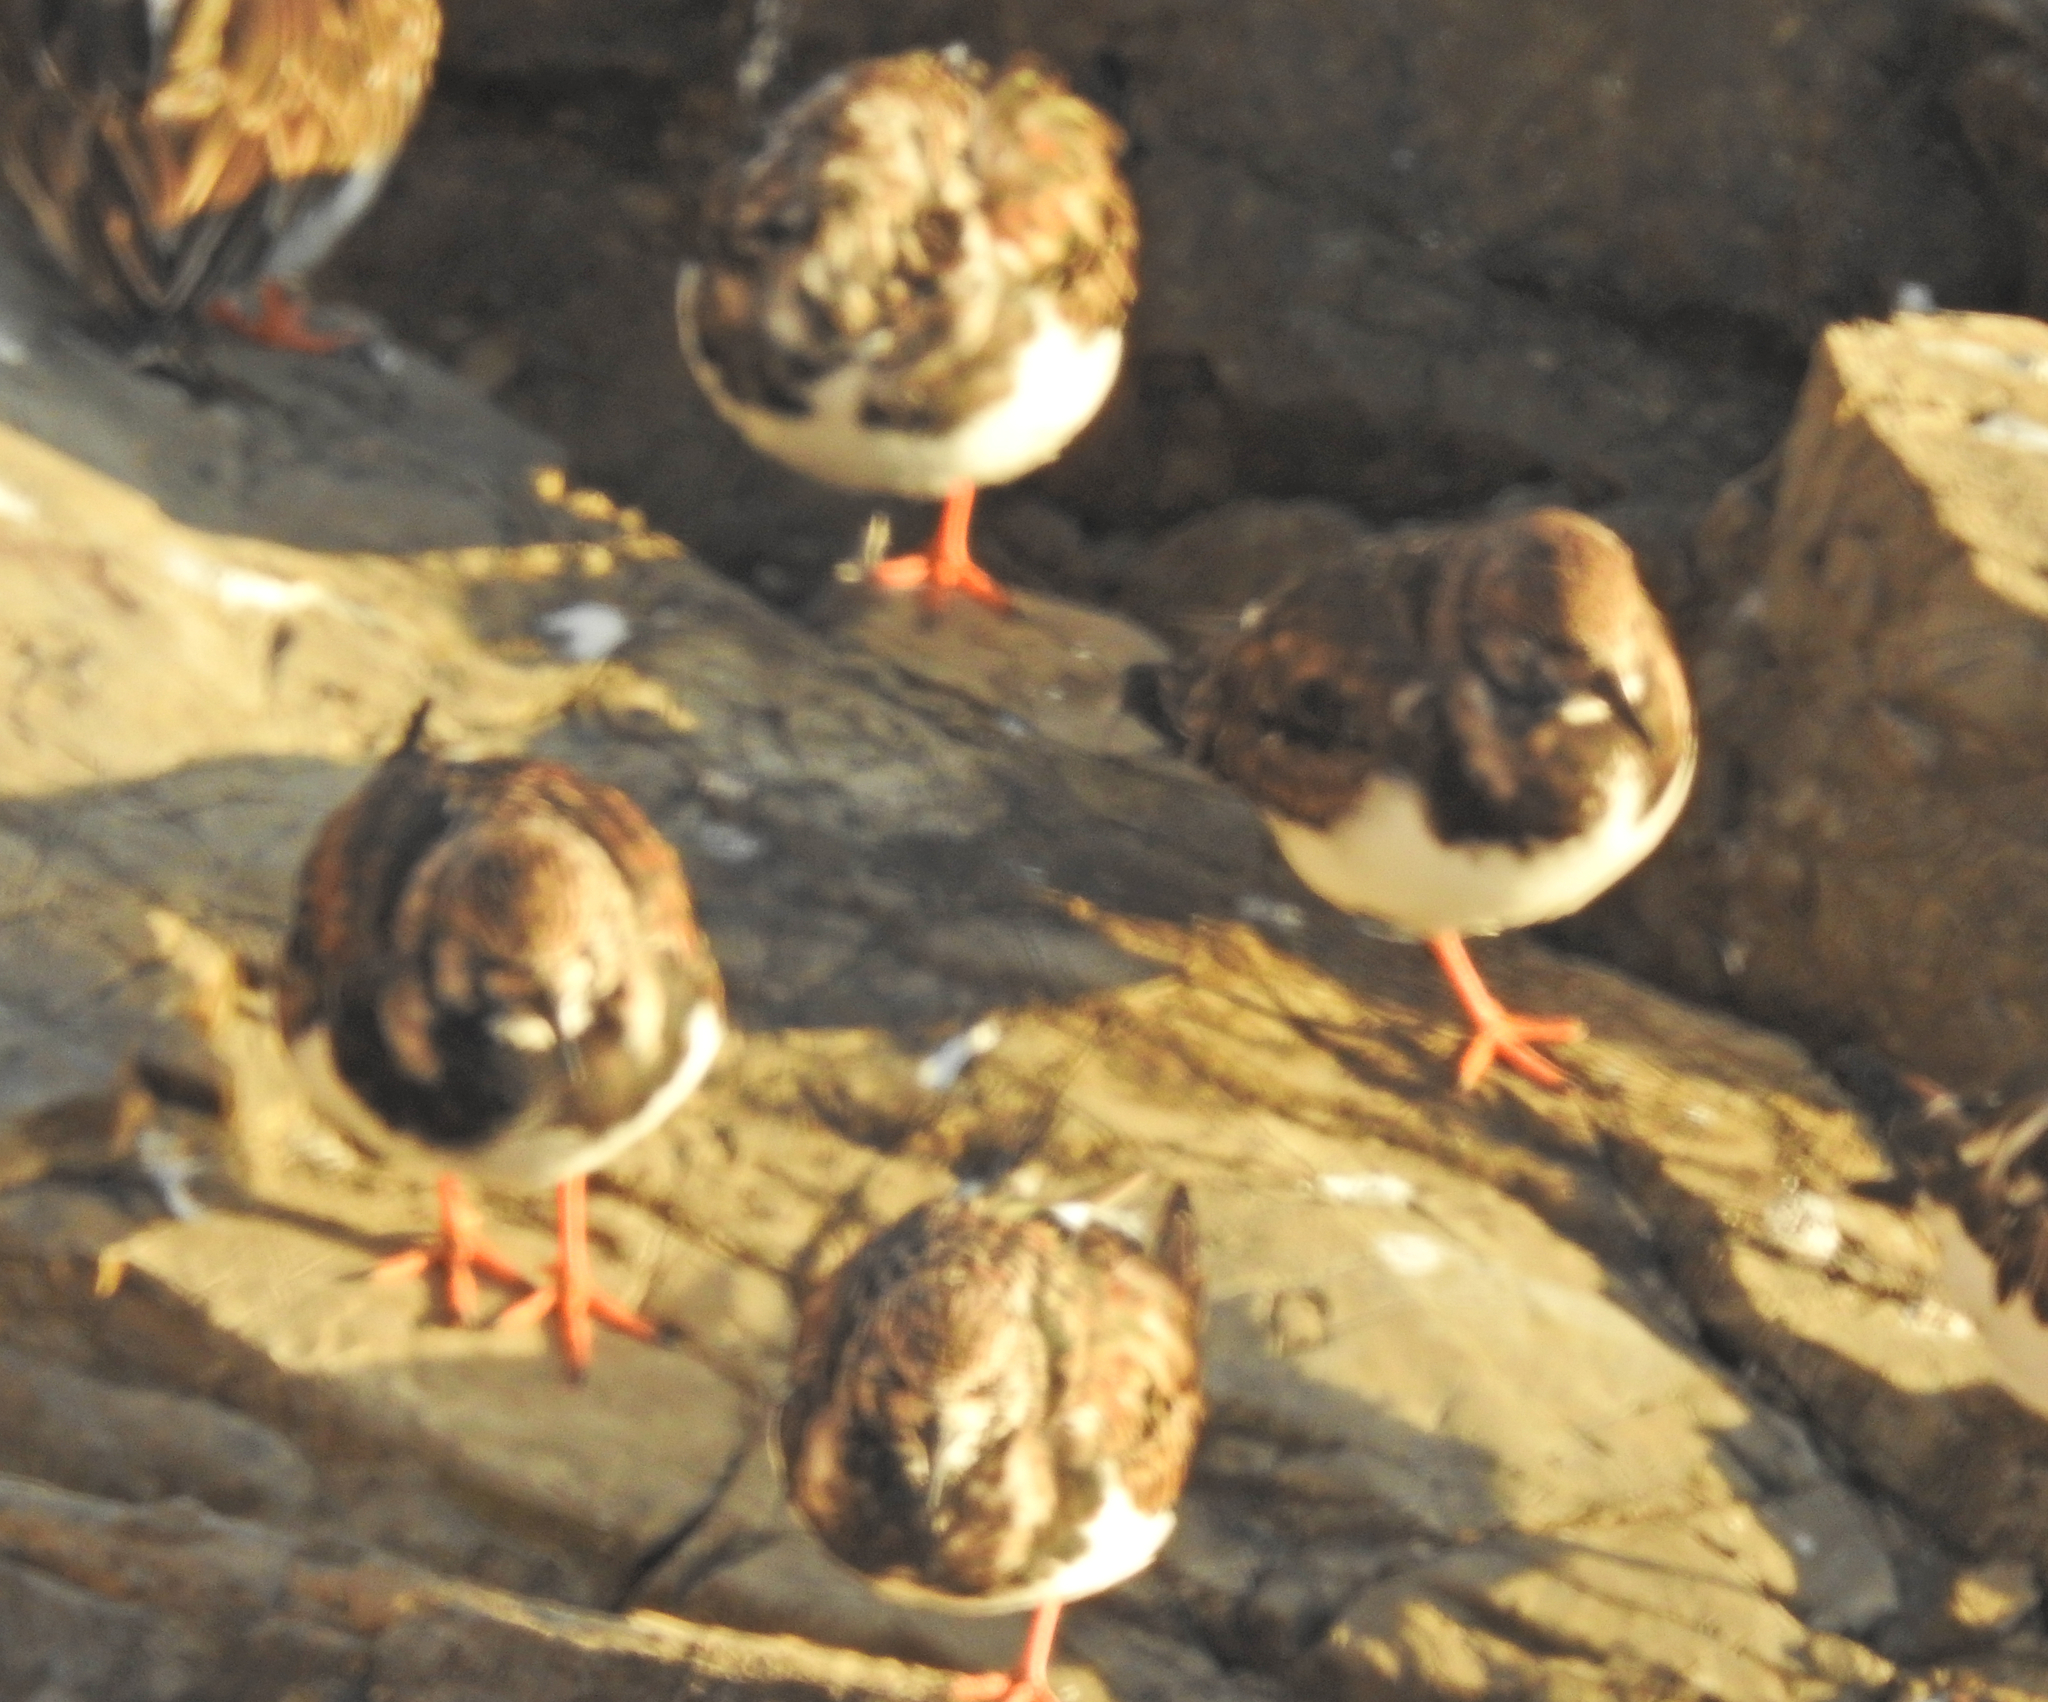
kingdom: Animalia
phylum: Chordata
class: Aves
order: Charadriiformes
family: Scolopacidae
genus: Arenaria
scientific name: Arenaria interpres
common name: Ruddy turnstone
